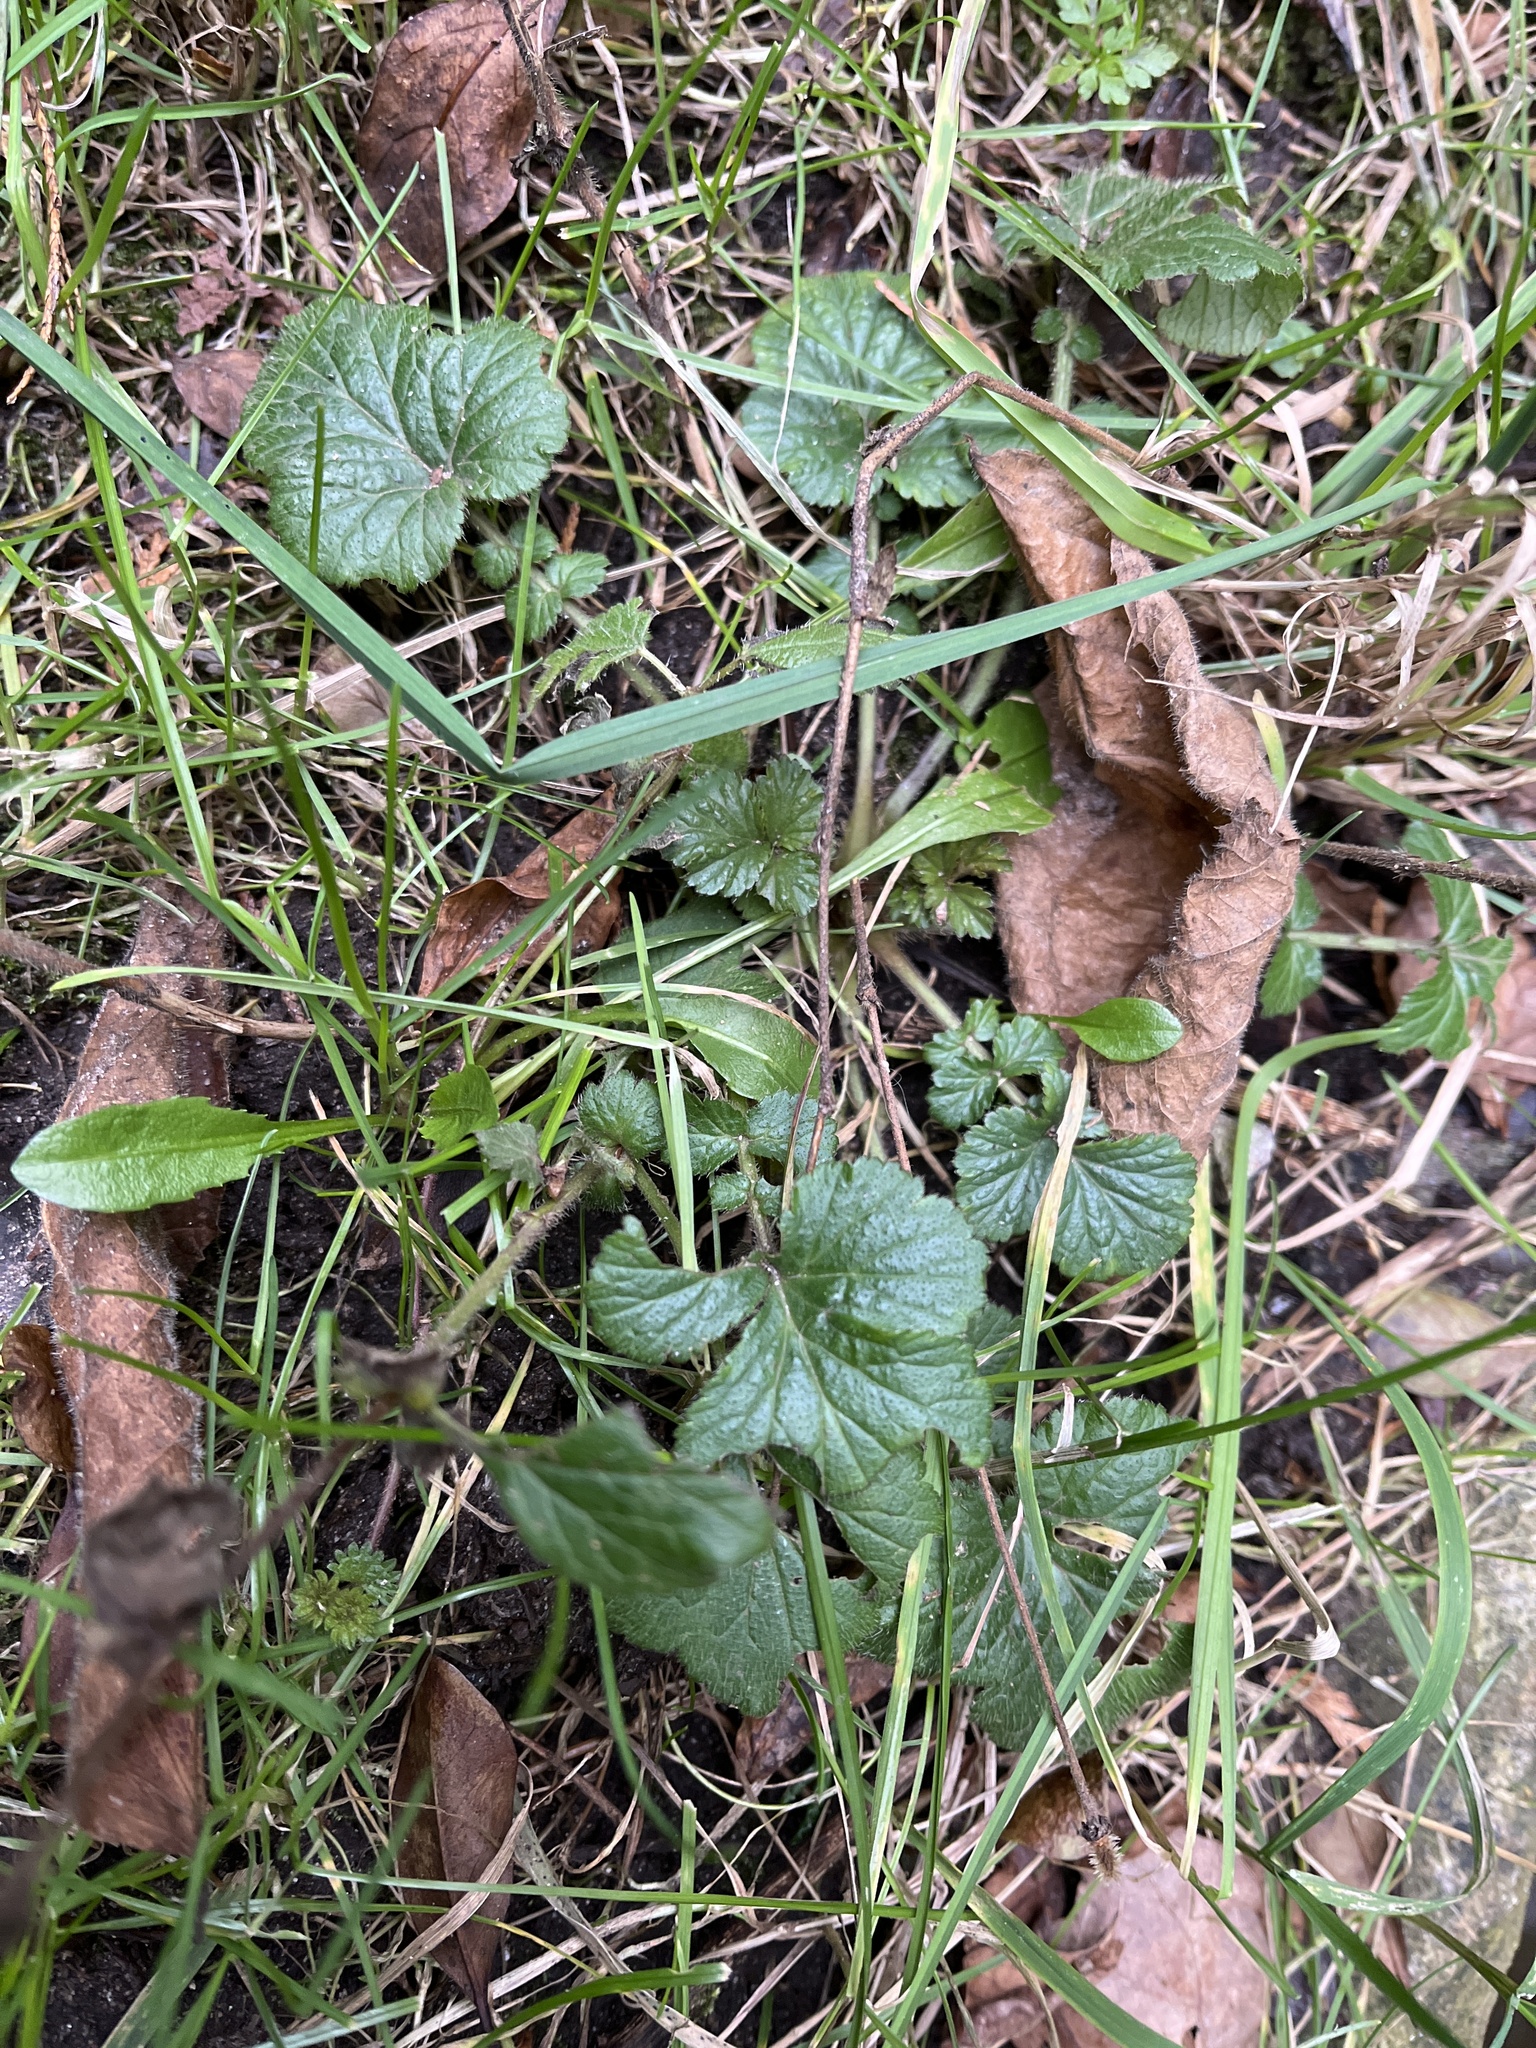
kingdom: Plantae
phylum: Tracheophyta
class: Magnoliopsida
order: Rosales
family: Rosaceae
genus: Geum
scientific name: Geum urbanum
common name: Wood avens
